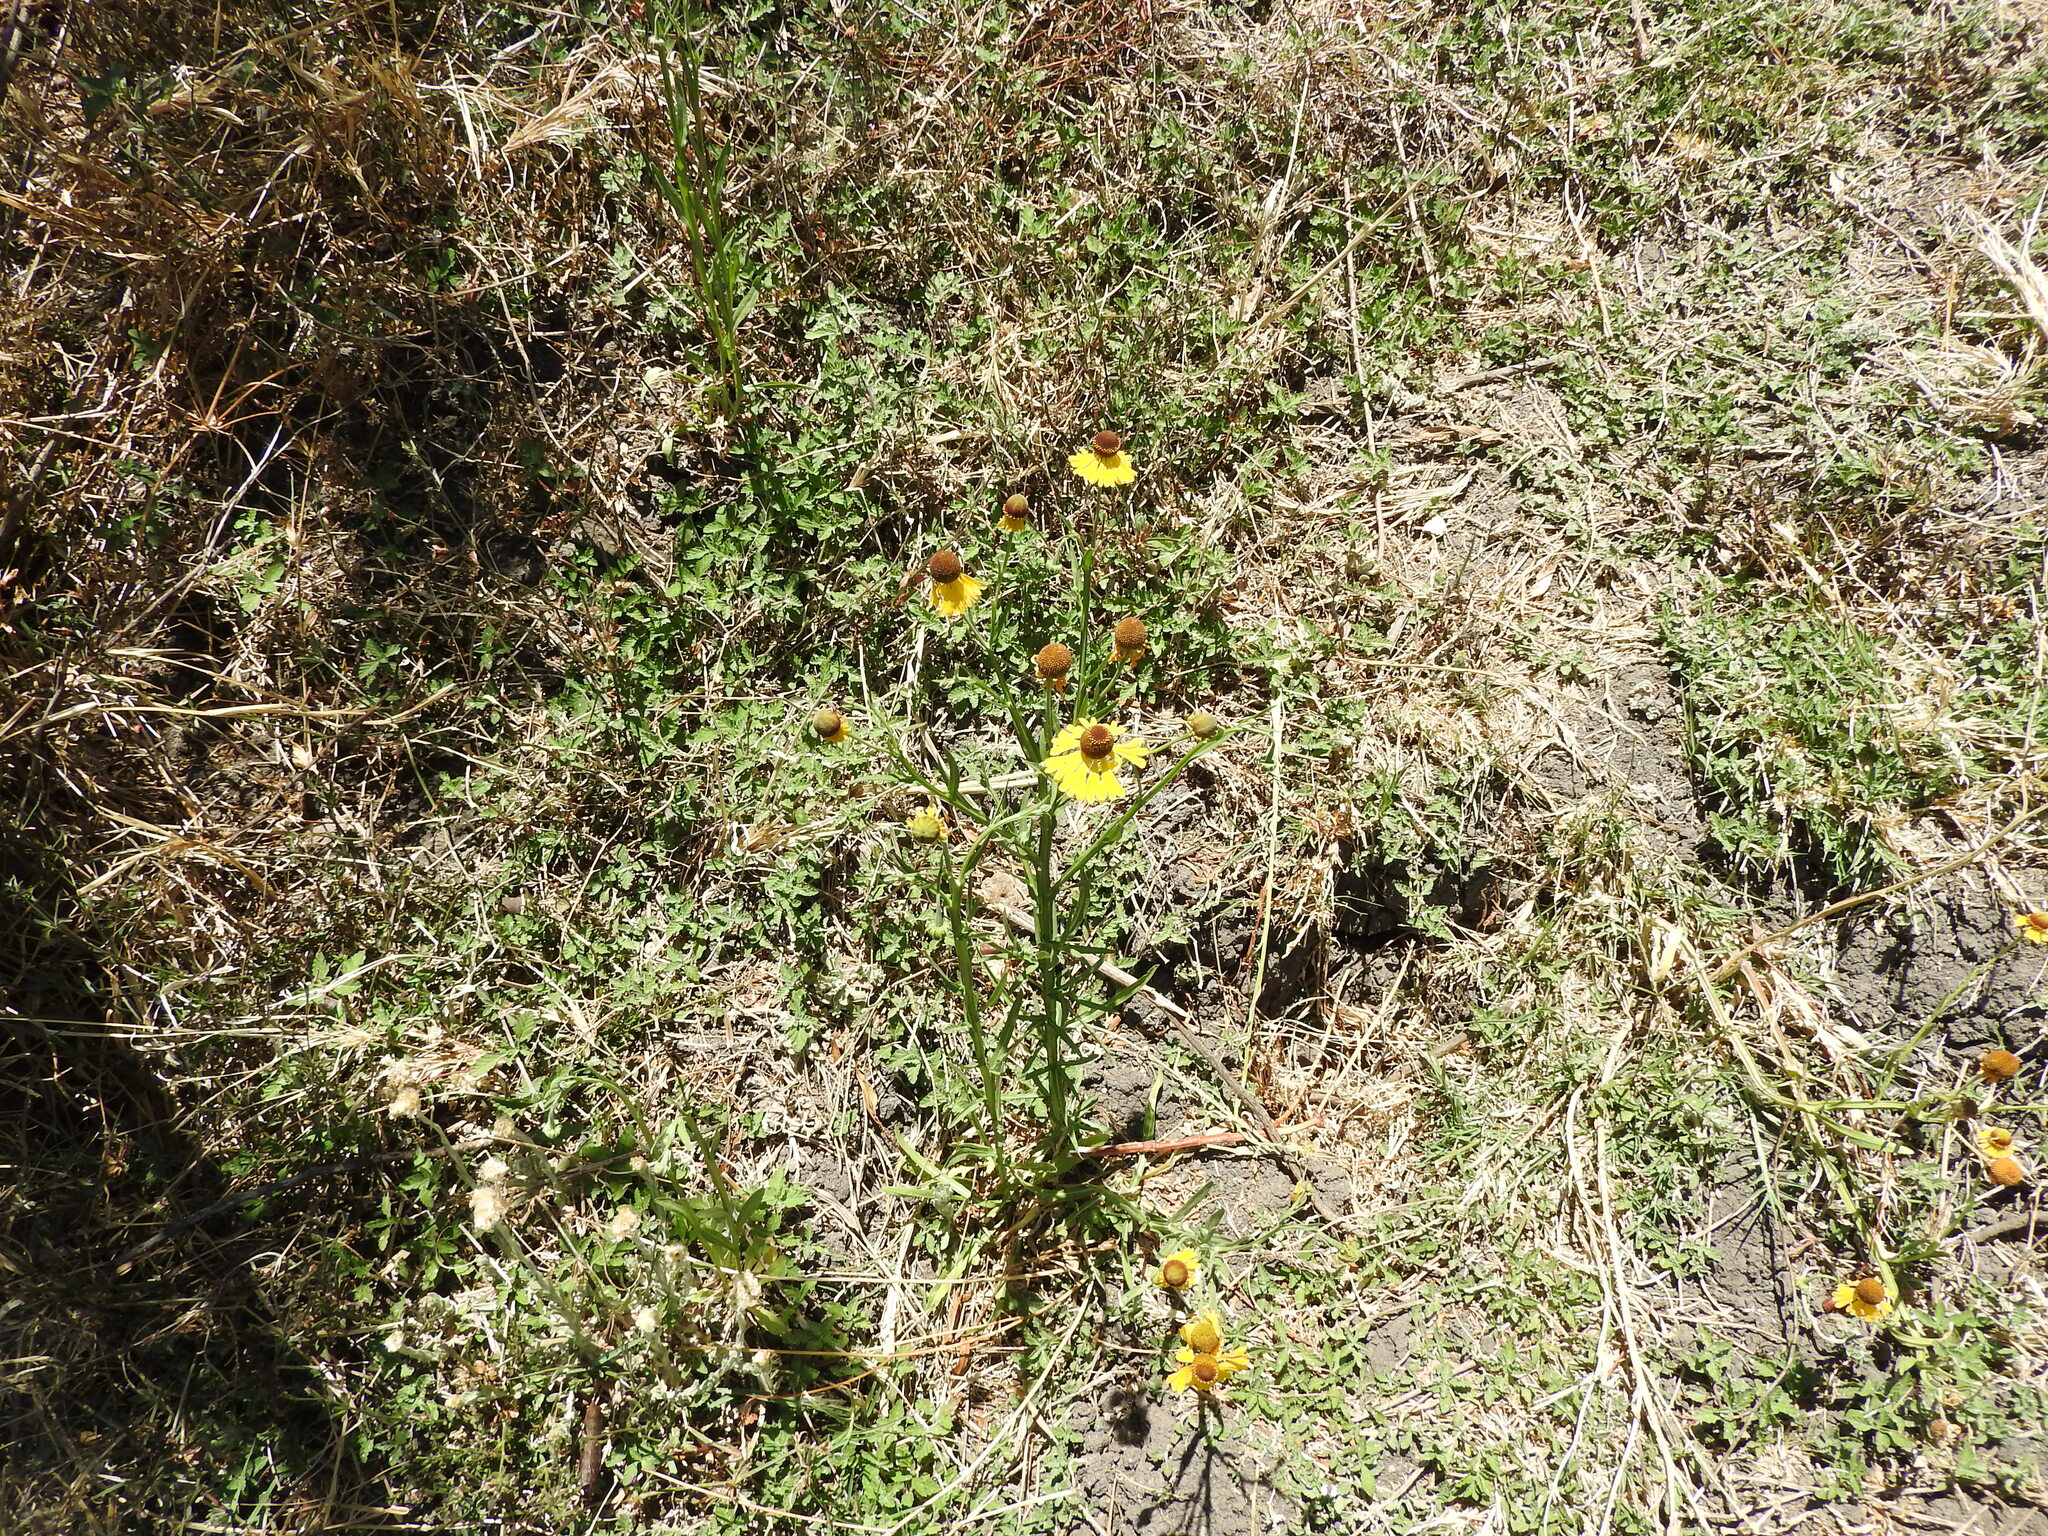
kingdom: Plantae
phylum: Tracheophyta
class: Magnoliopsida
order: Asterales
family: Asteraceae
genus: Helenium
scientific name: Helenium mexicanum
